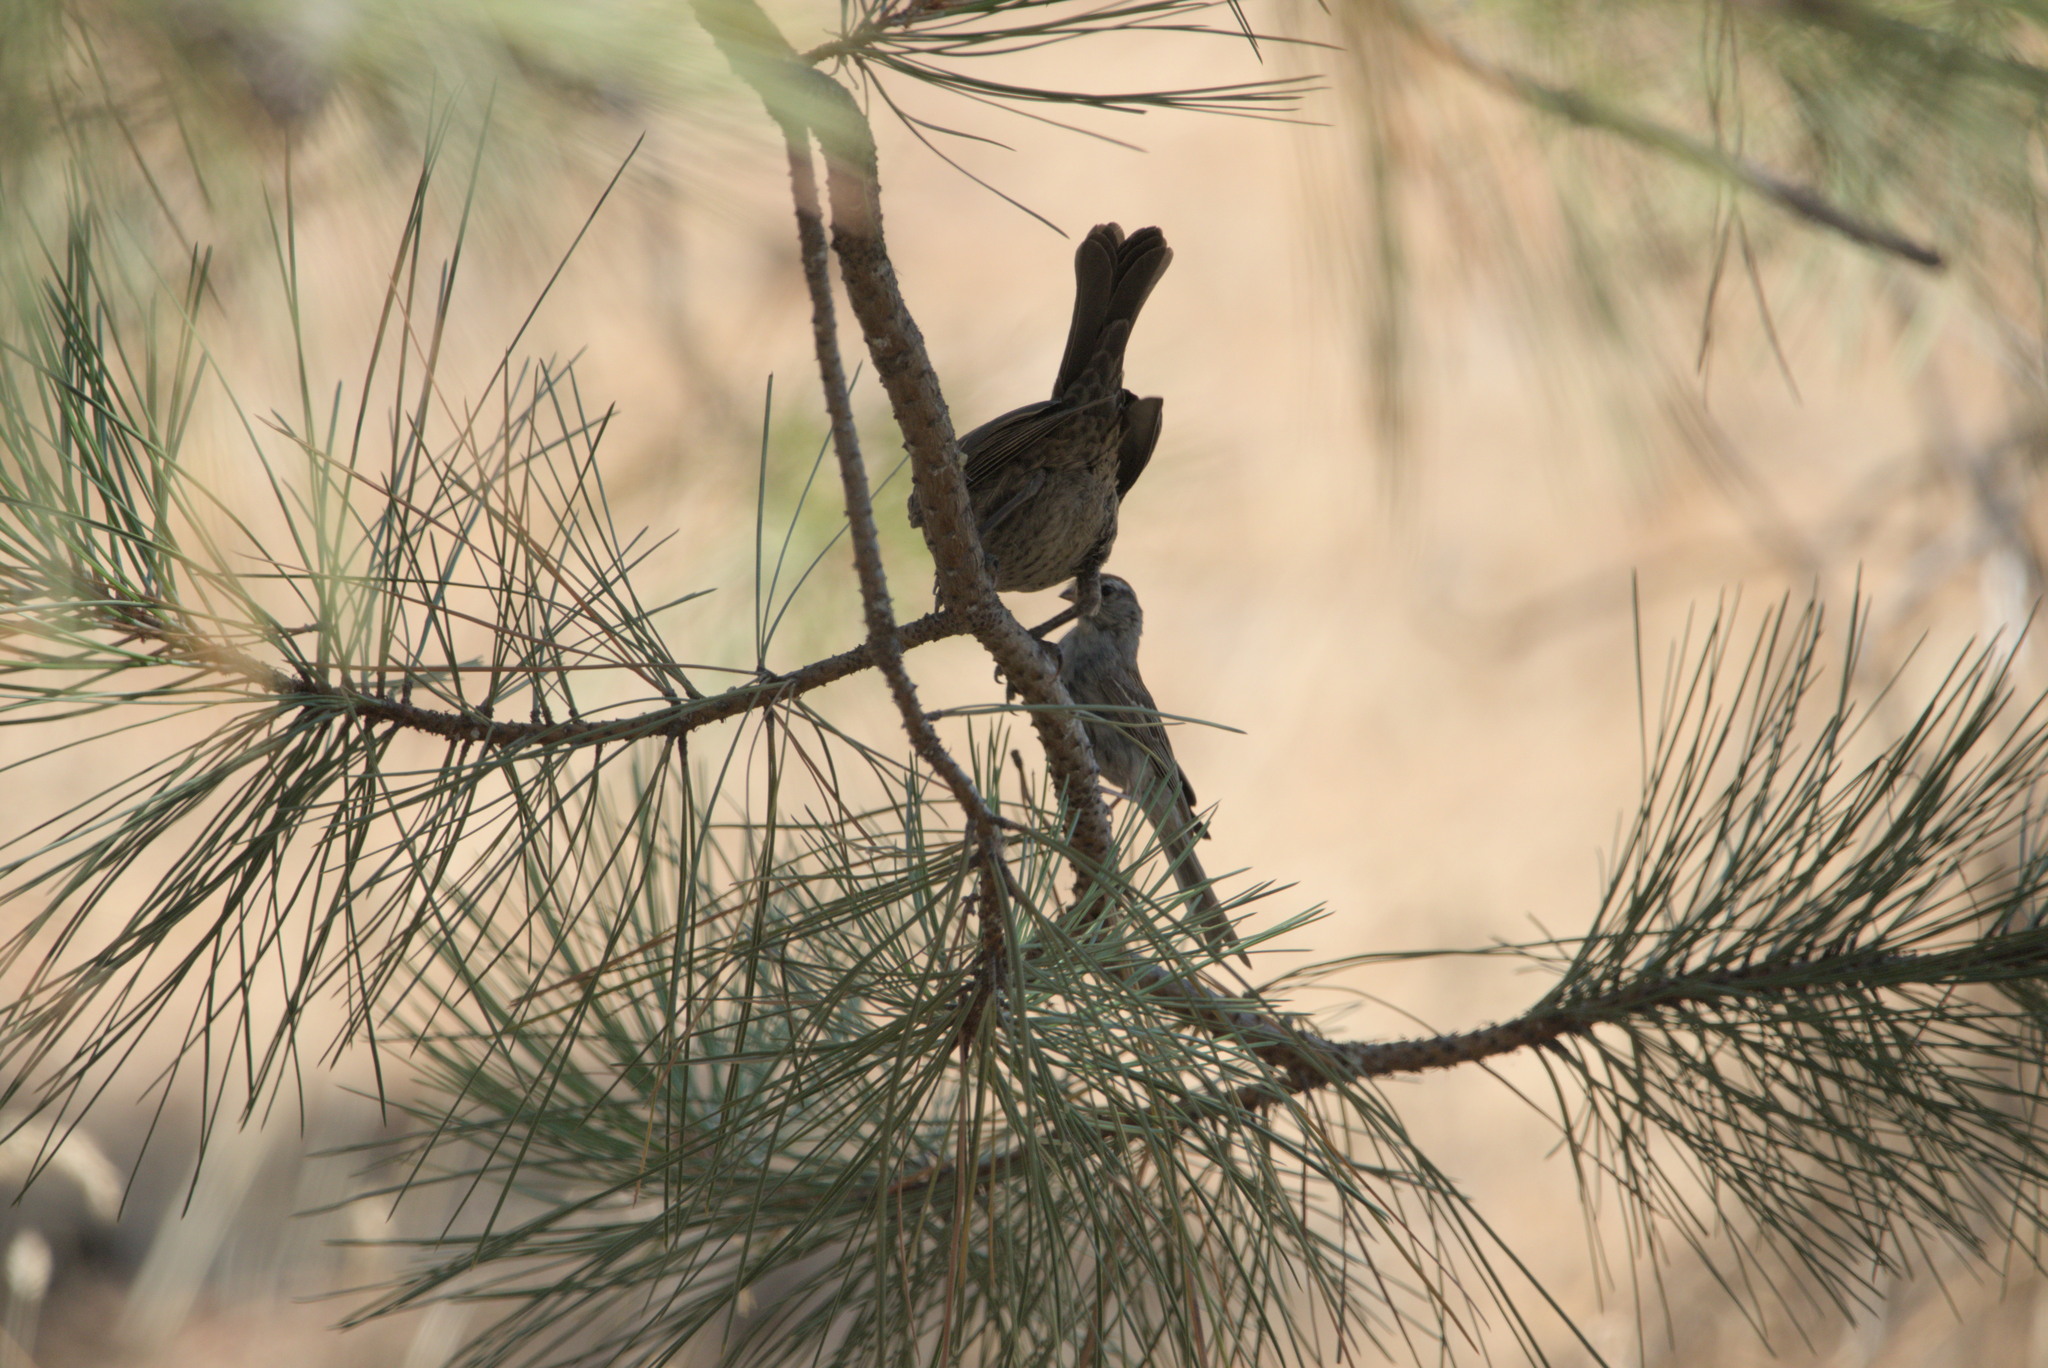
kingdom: Animalia
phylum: Chordata
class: Aves
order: Passeriformes
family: Icteridae
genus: Molothrus
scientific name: Molothrus ater
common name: Brown-headed cowbird
